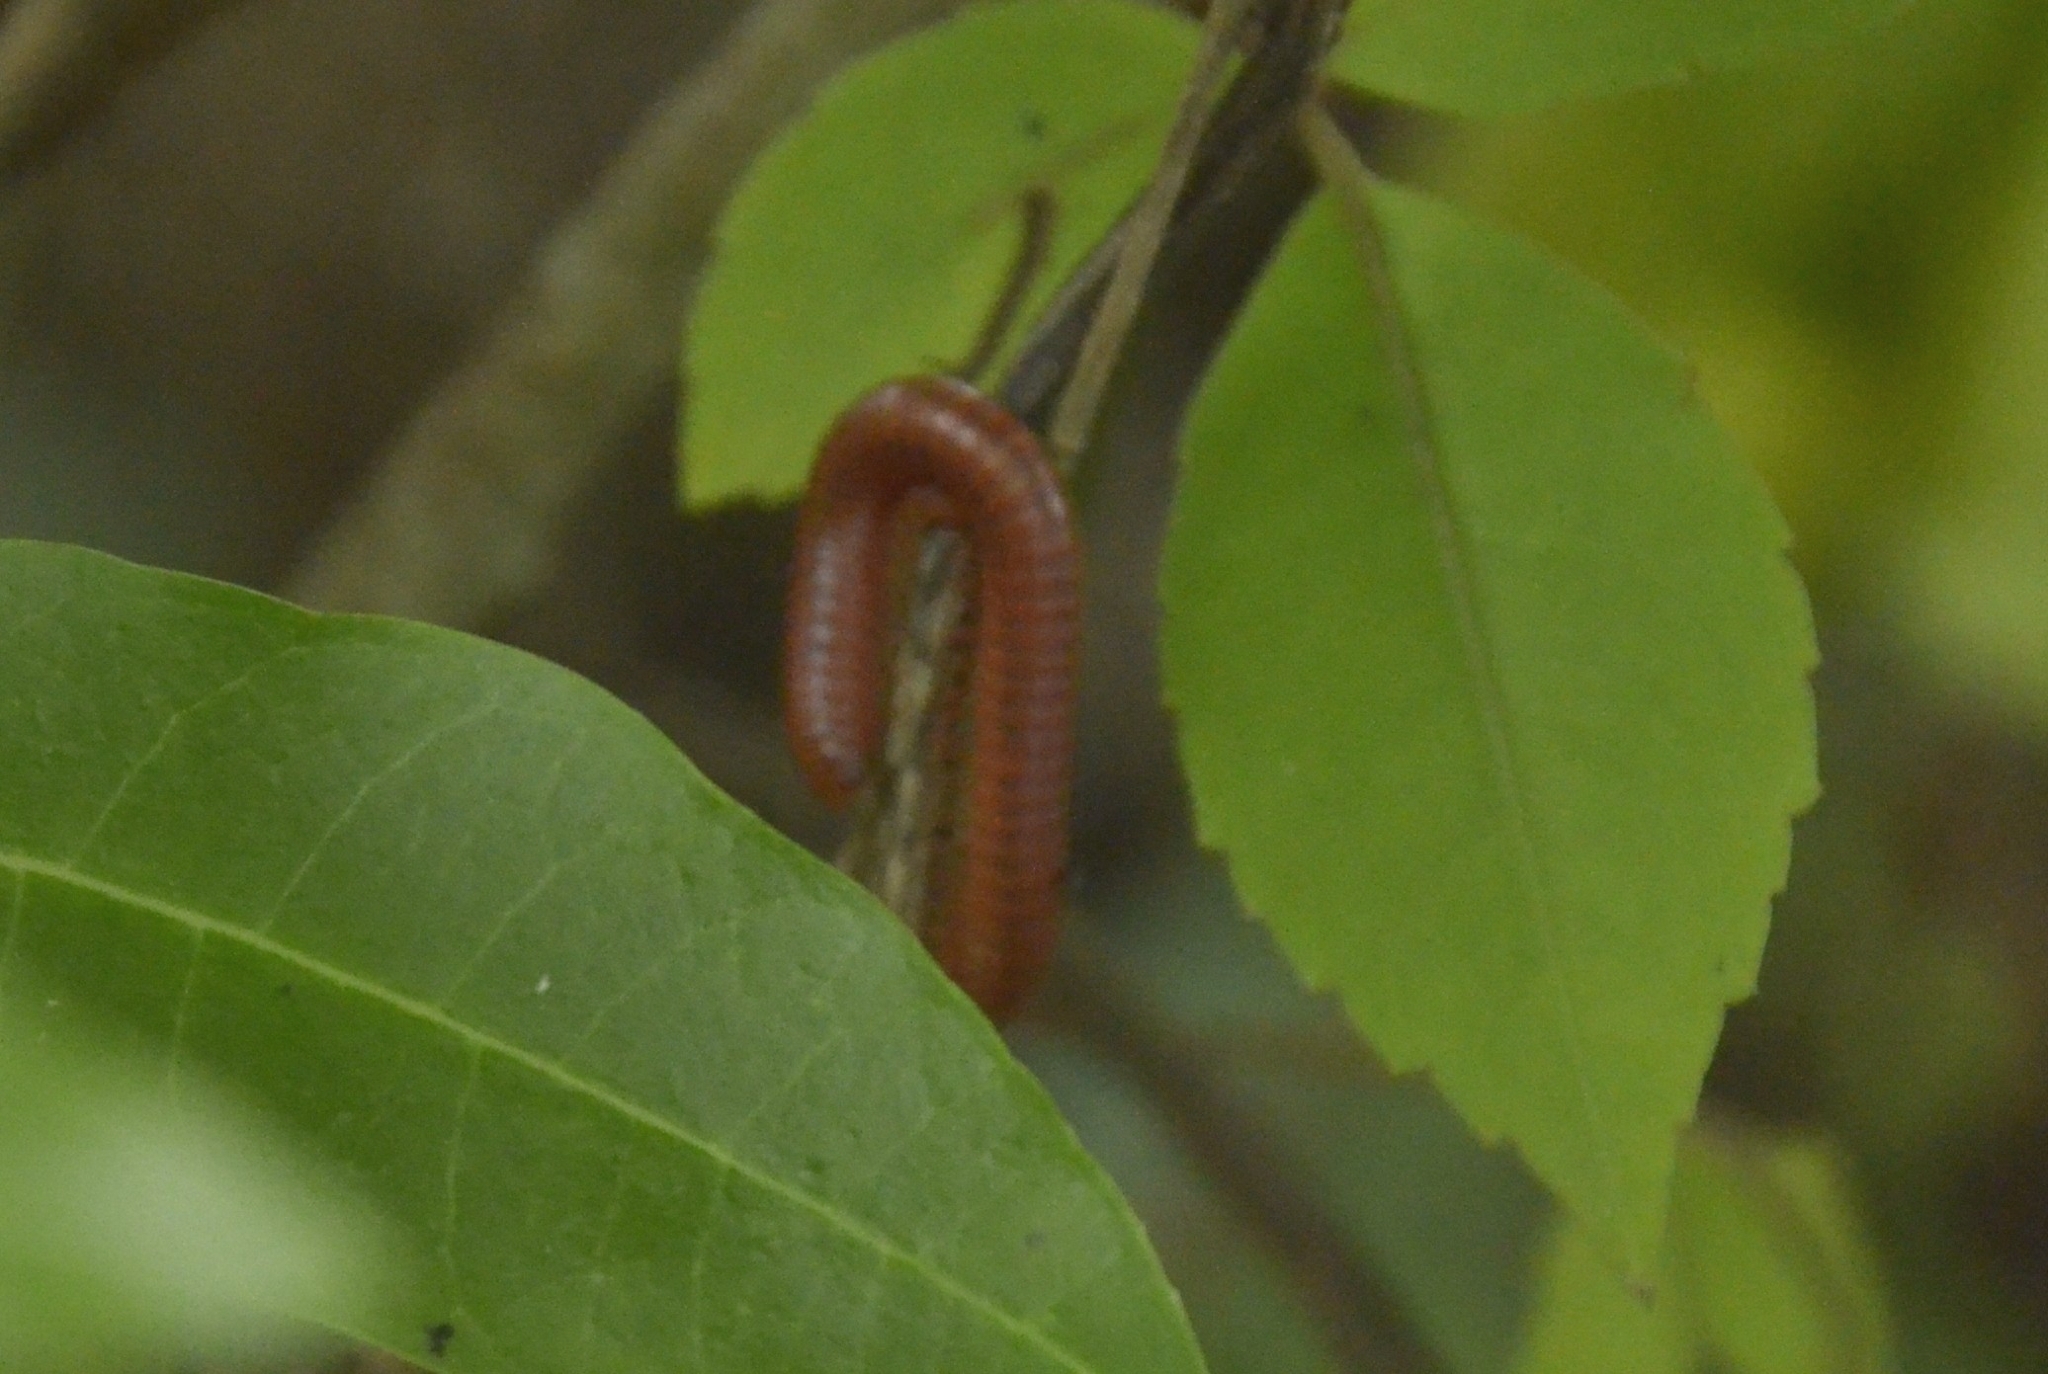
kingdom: Animalia
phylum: Arthropoda
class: Diplopoda
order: Spirobolida
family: Pachybolidae
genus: Trigoniulus
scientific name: Trigoniulus corallinus
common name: Millipede
